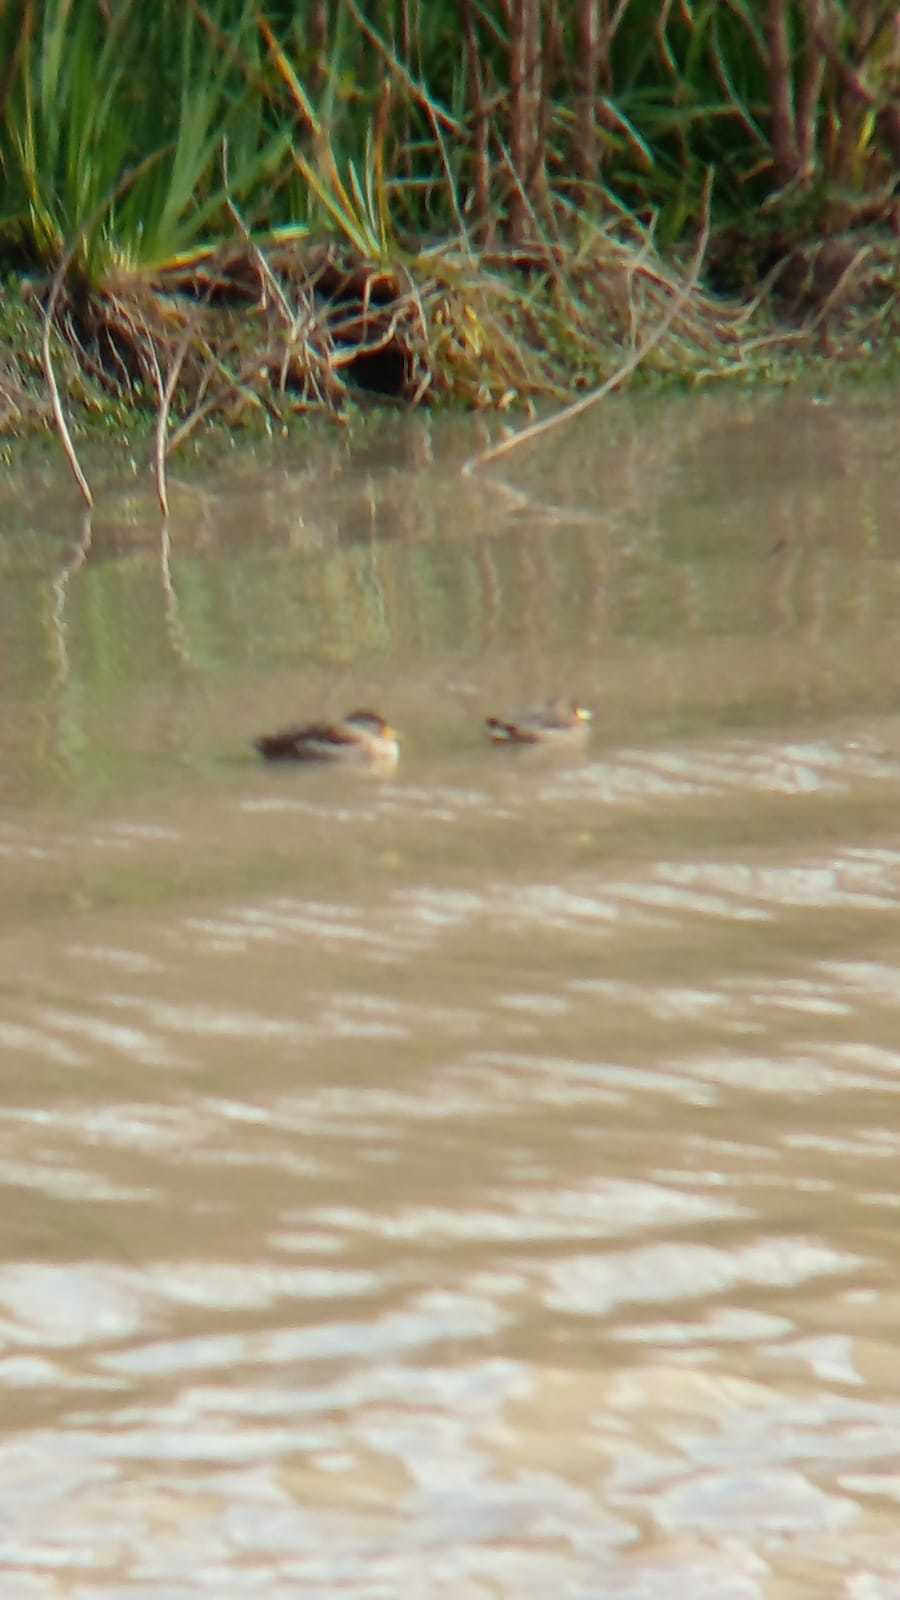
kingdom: Animalia
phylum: Chordata
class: Aves
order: Anseriformes
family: Anatidae
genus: Anas
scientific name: Anas flavirostris
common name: Yellow-billed teal
